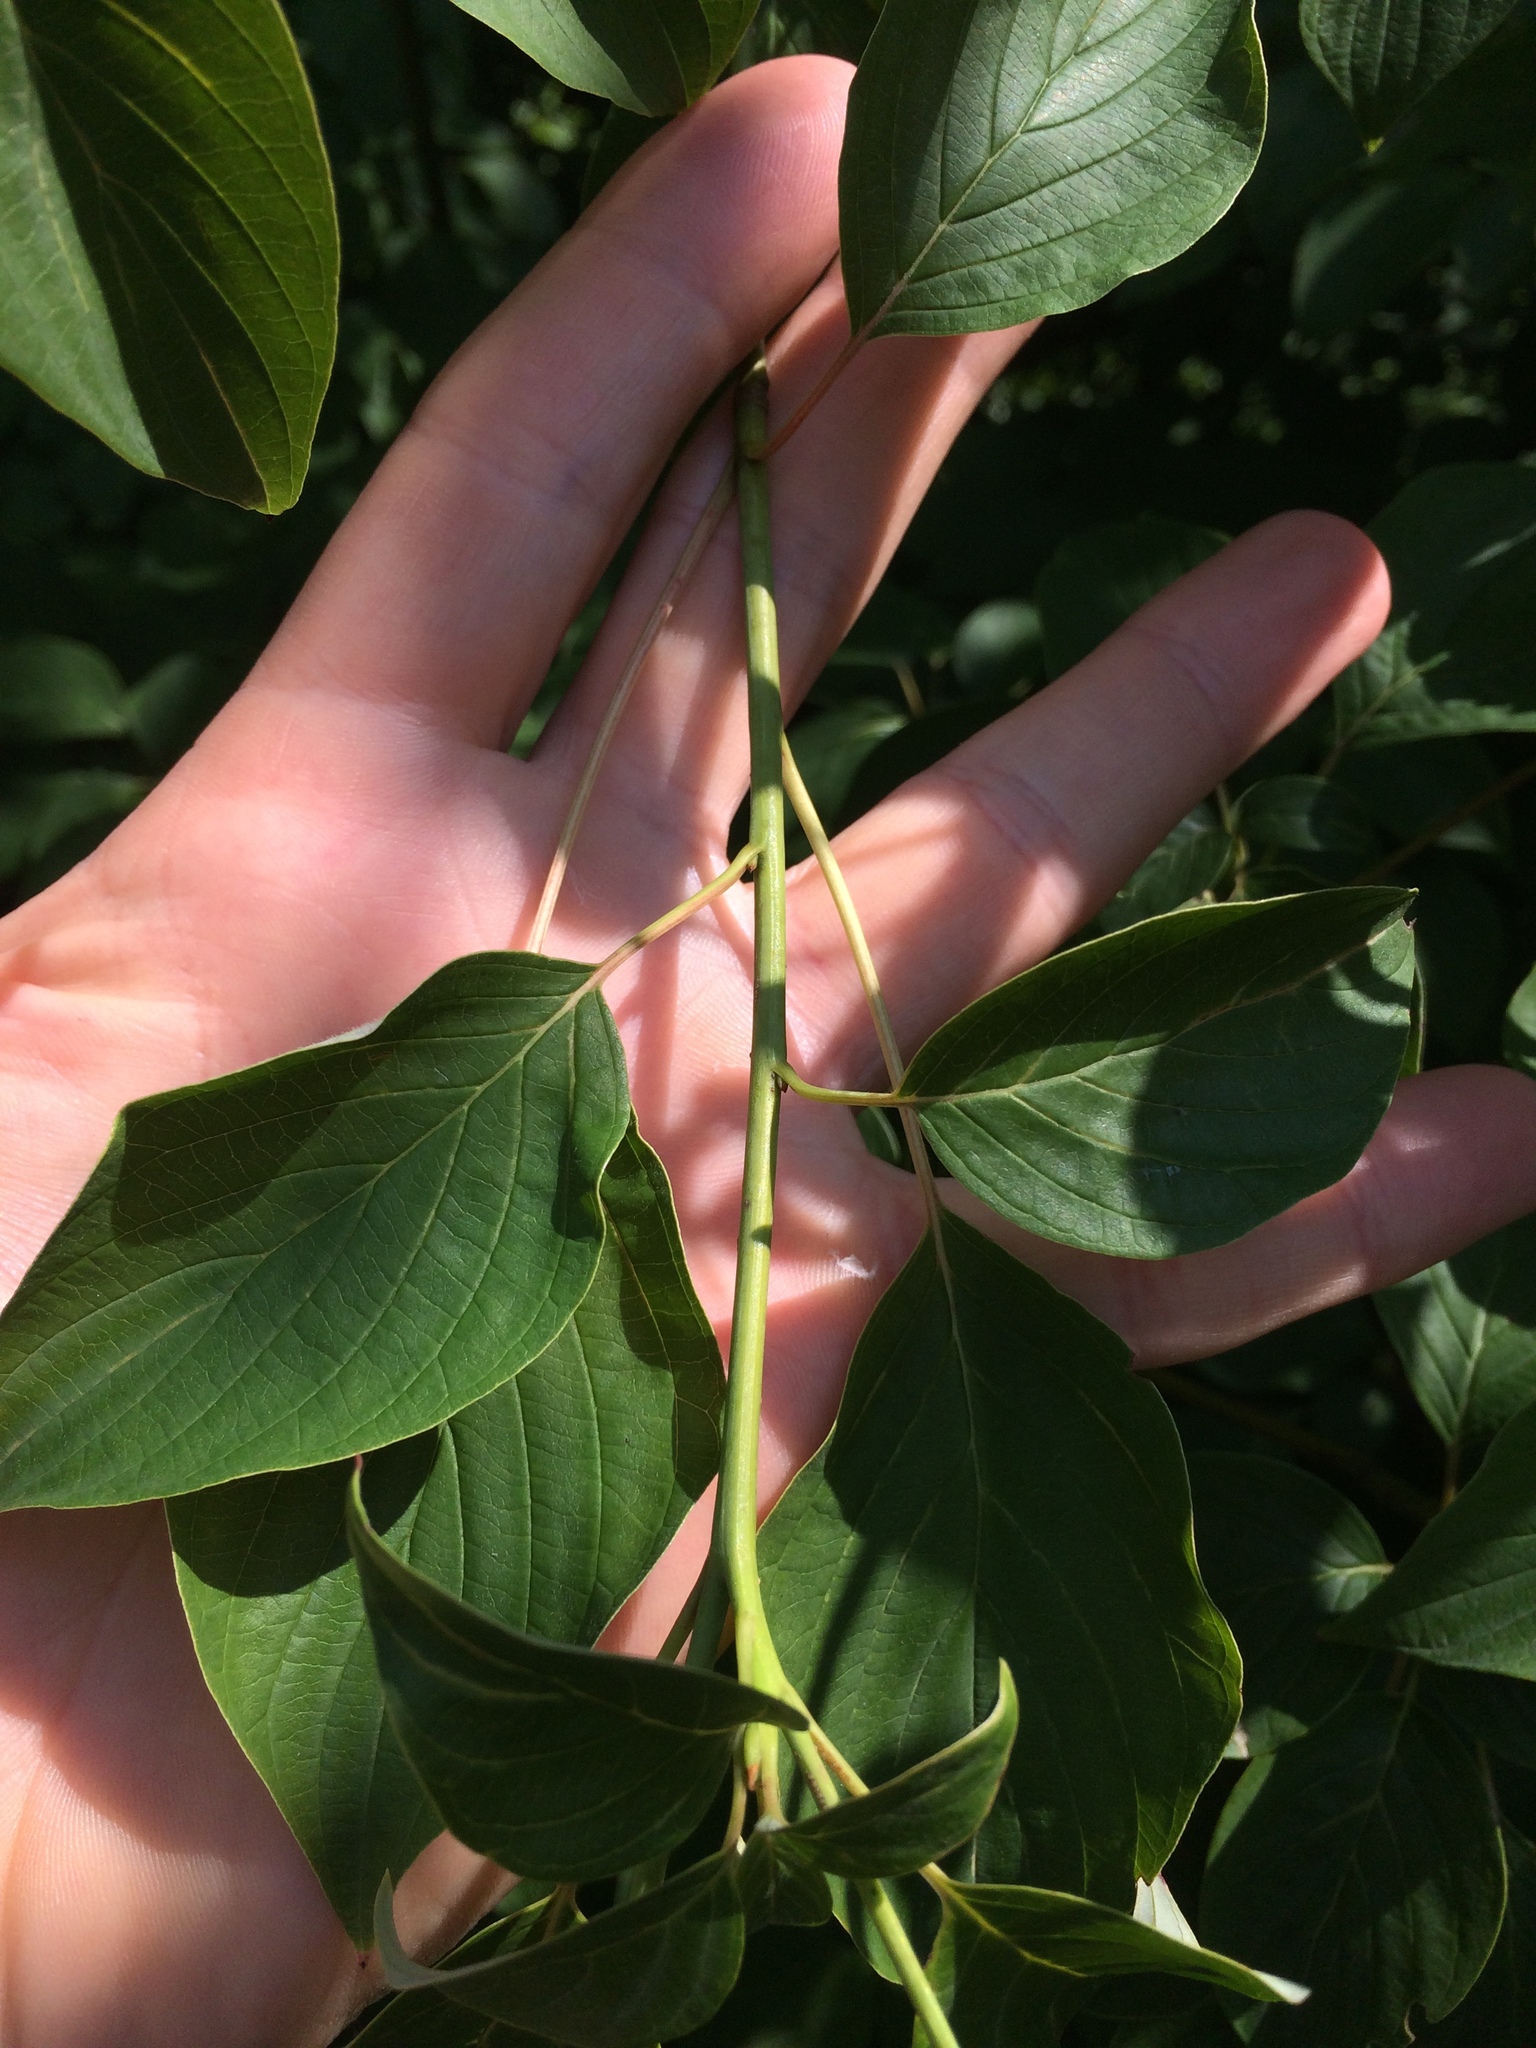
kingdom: Plantae
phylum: Tracheophyta
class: Magnoliopsida
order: Cornales
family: Cornaceae
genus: Cornus
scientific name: Cornus alternifolia
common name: Pagoda dogwood
